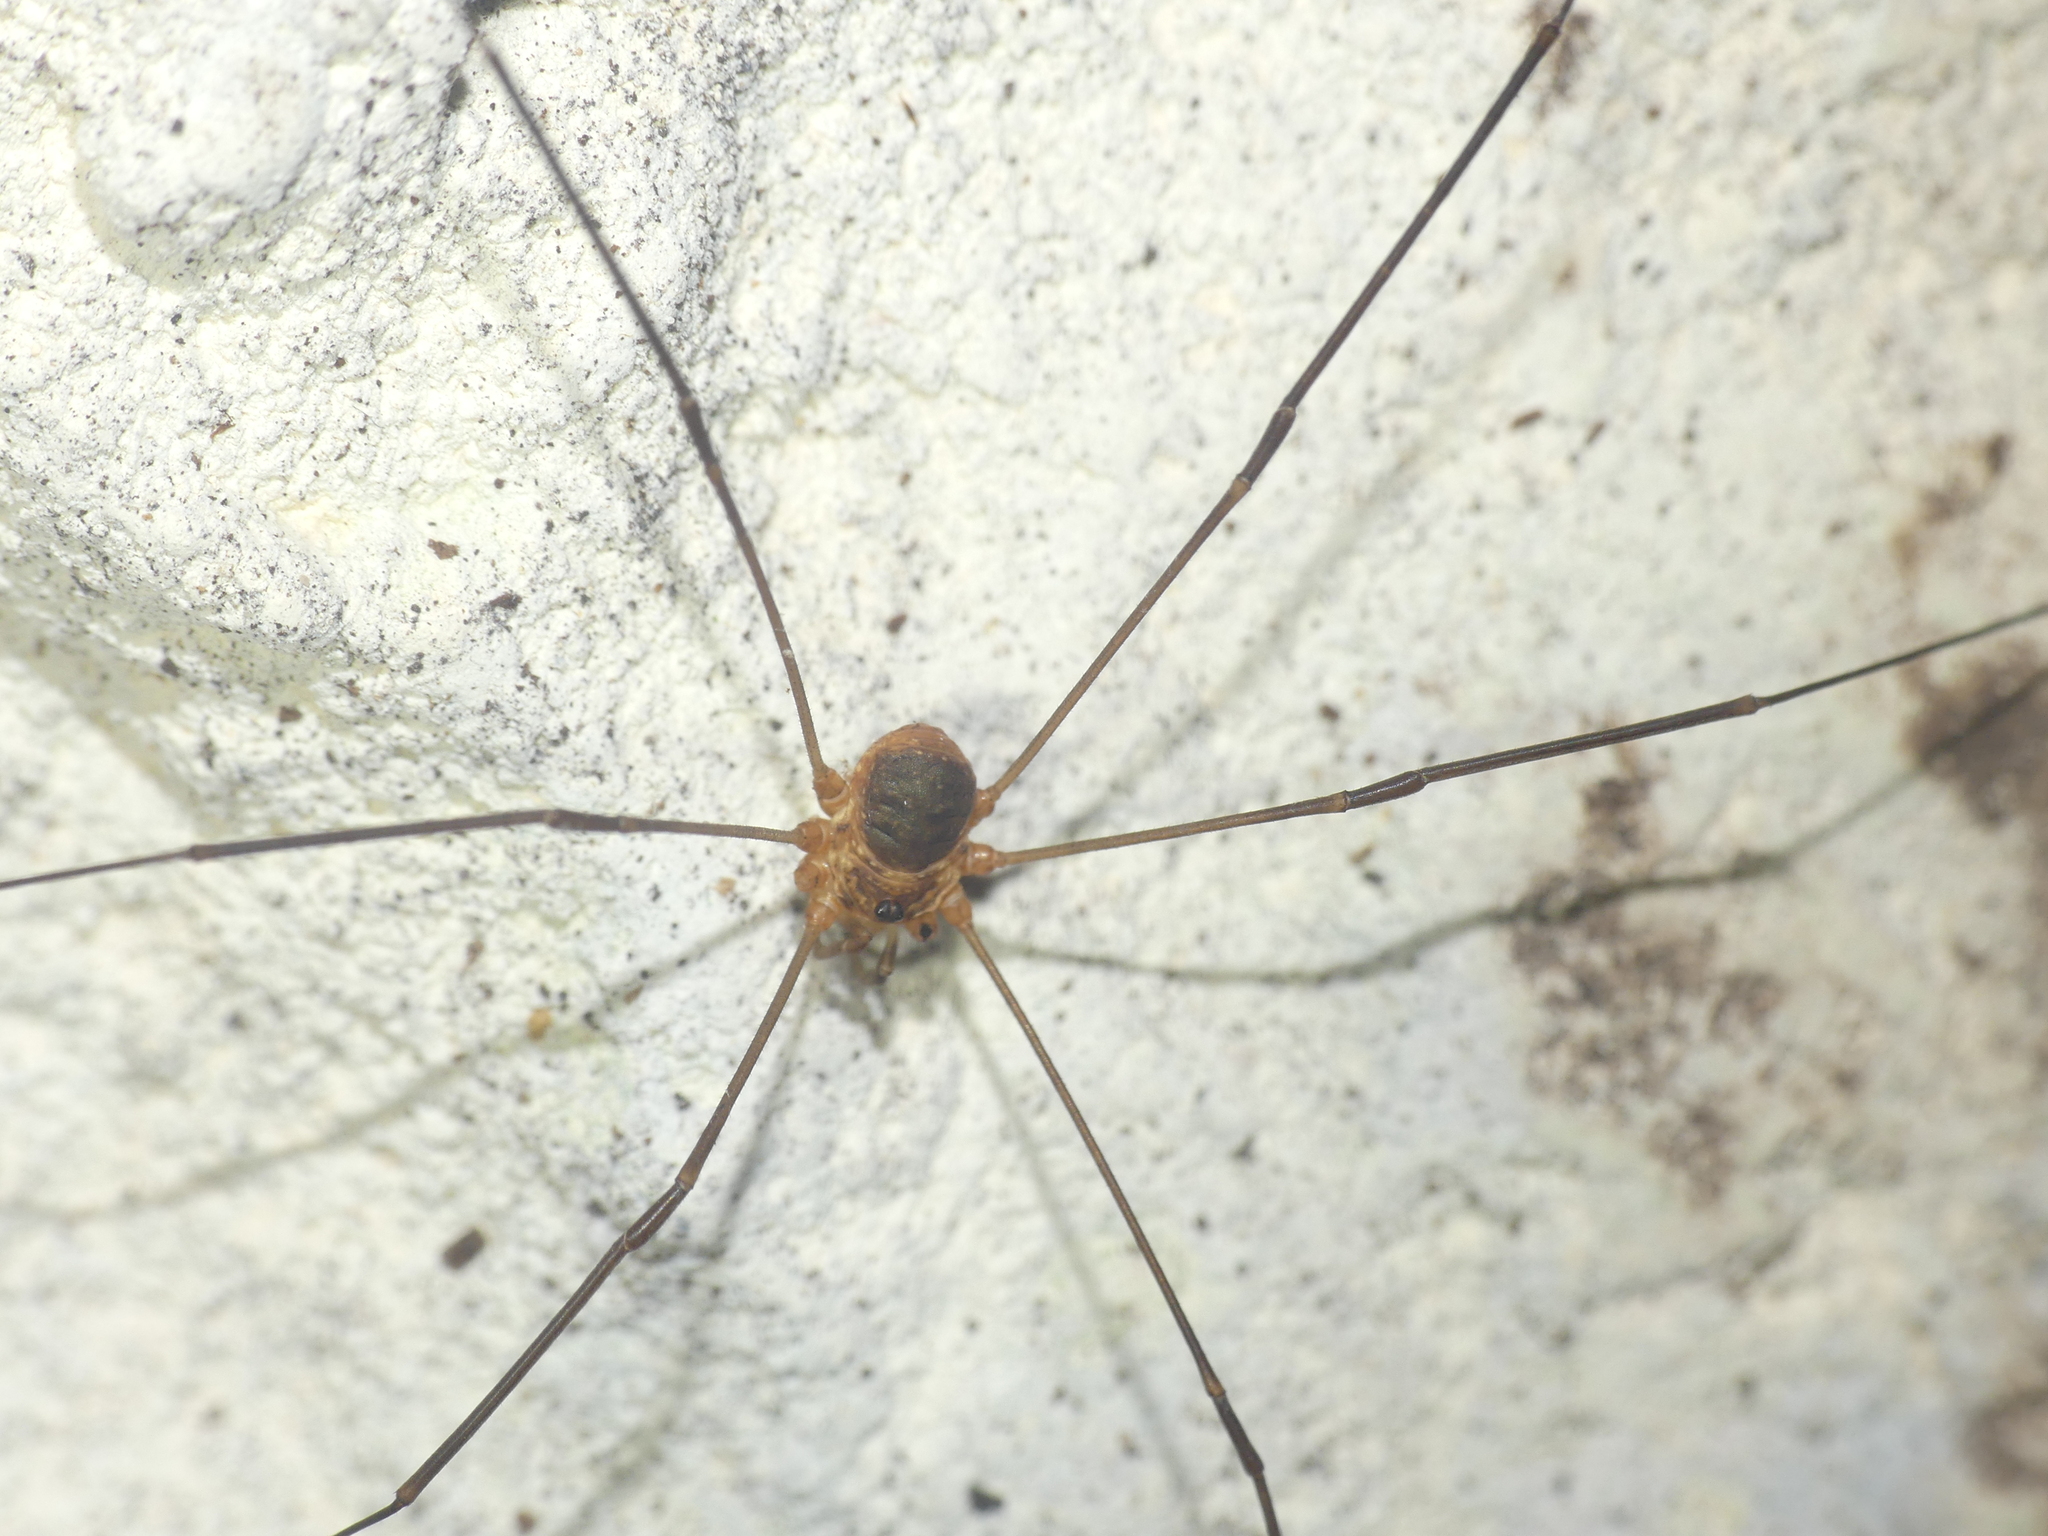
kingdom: Animalia
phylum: Arthropoda
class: Arachnida
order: Opiliones
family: Phalangiidae
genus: Amilenus
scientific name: Amilenus aurantiacus
